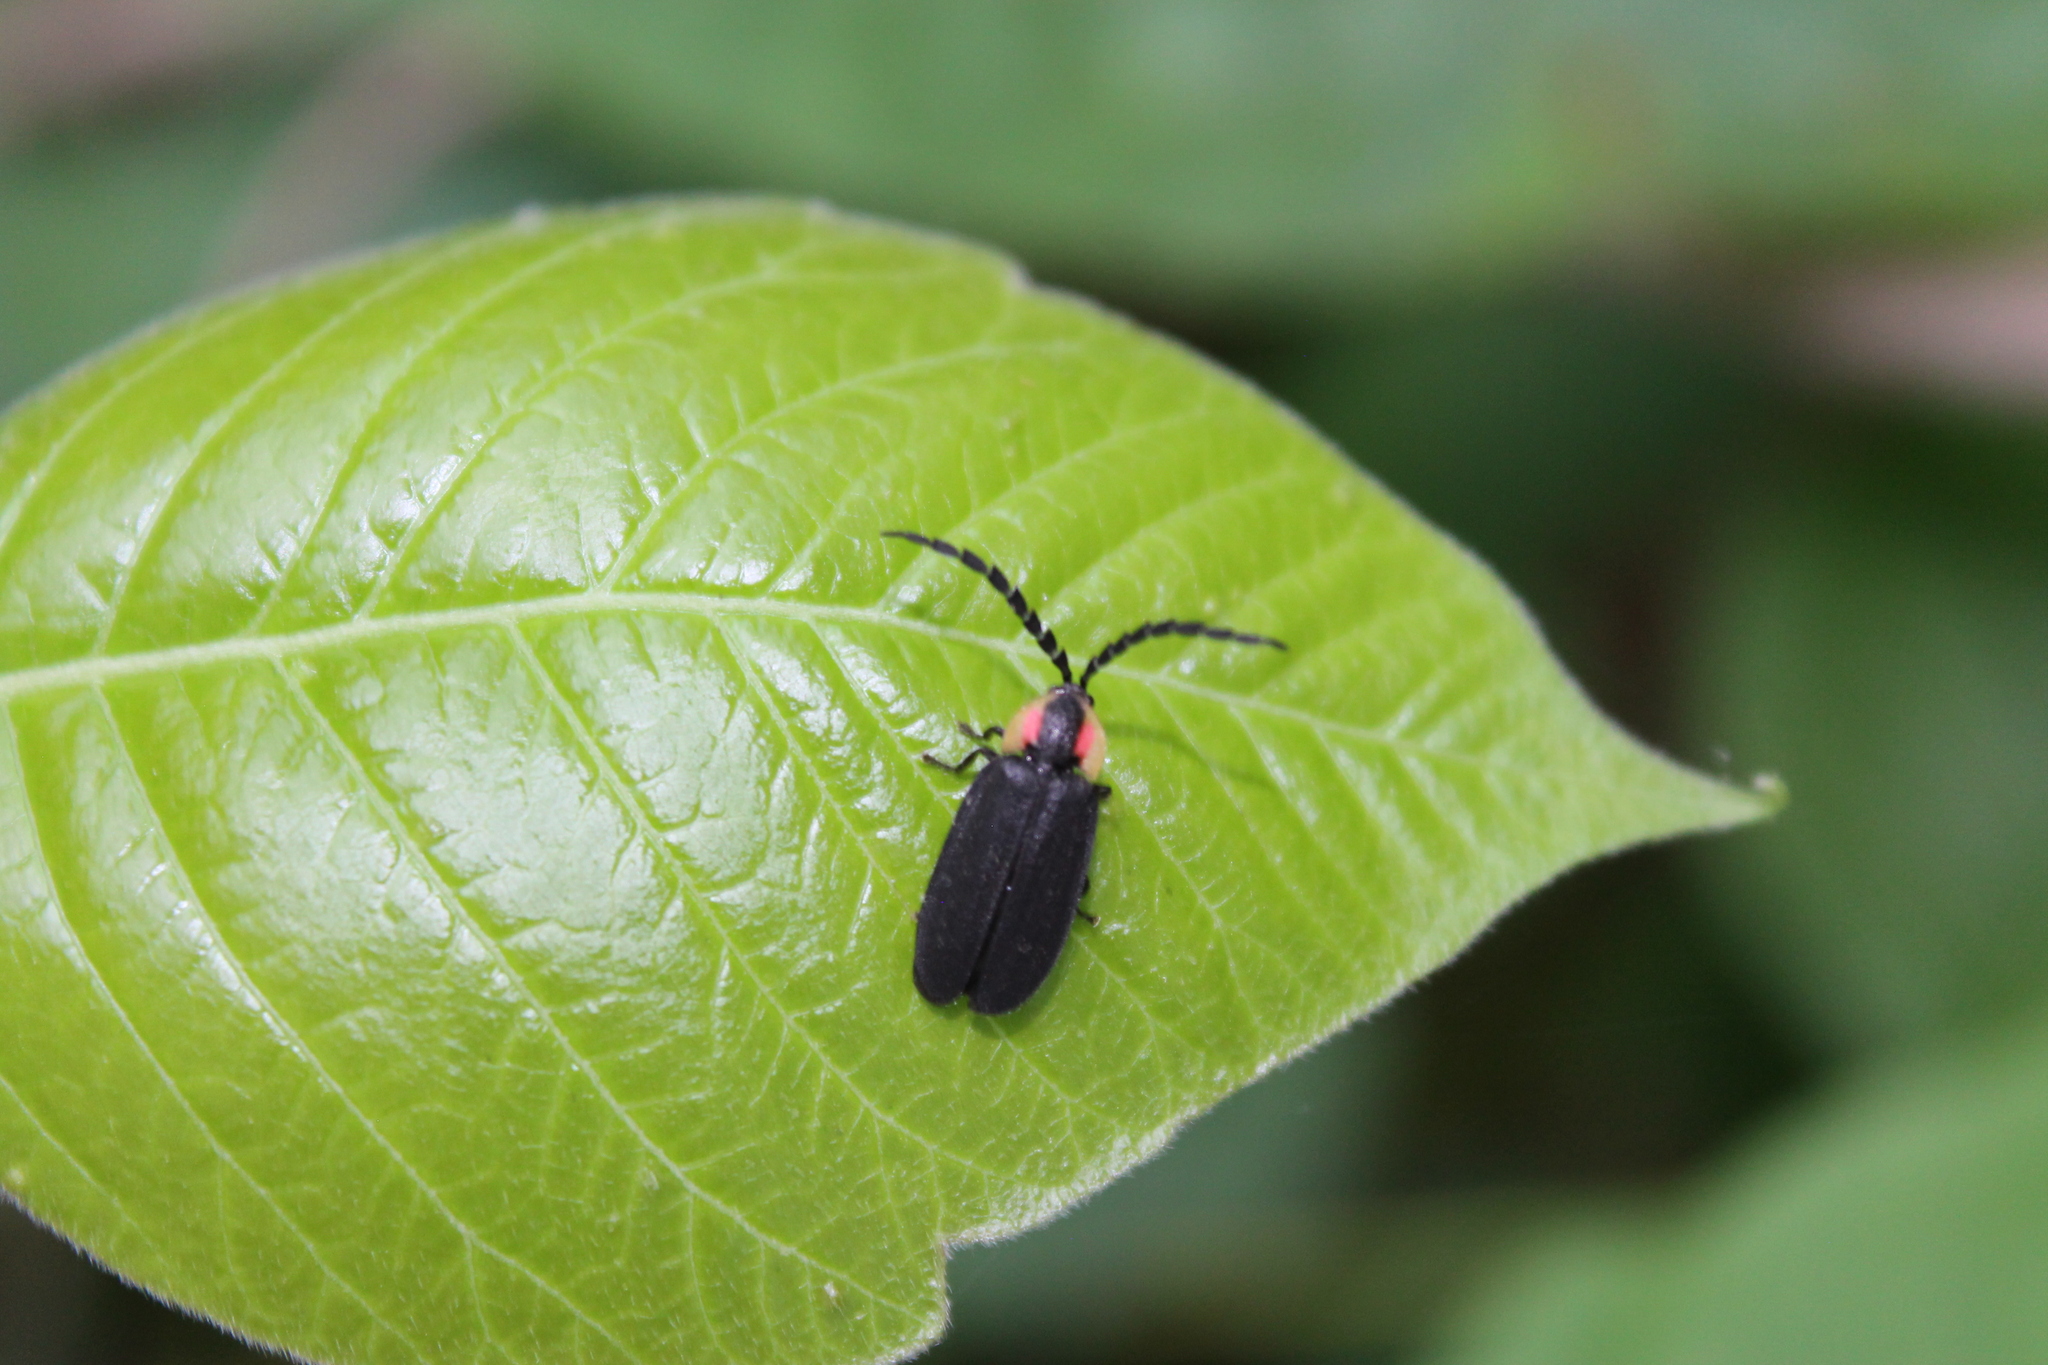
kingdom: Animalia
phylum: Arthropoda
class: Insecta
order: Coleoptera
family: Lampyridae
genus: Lucidota
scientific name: Lucidota atra
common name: Black firefly
